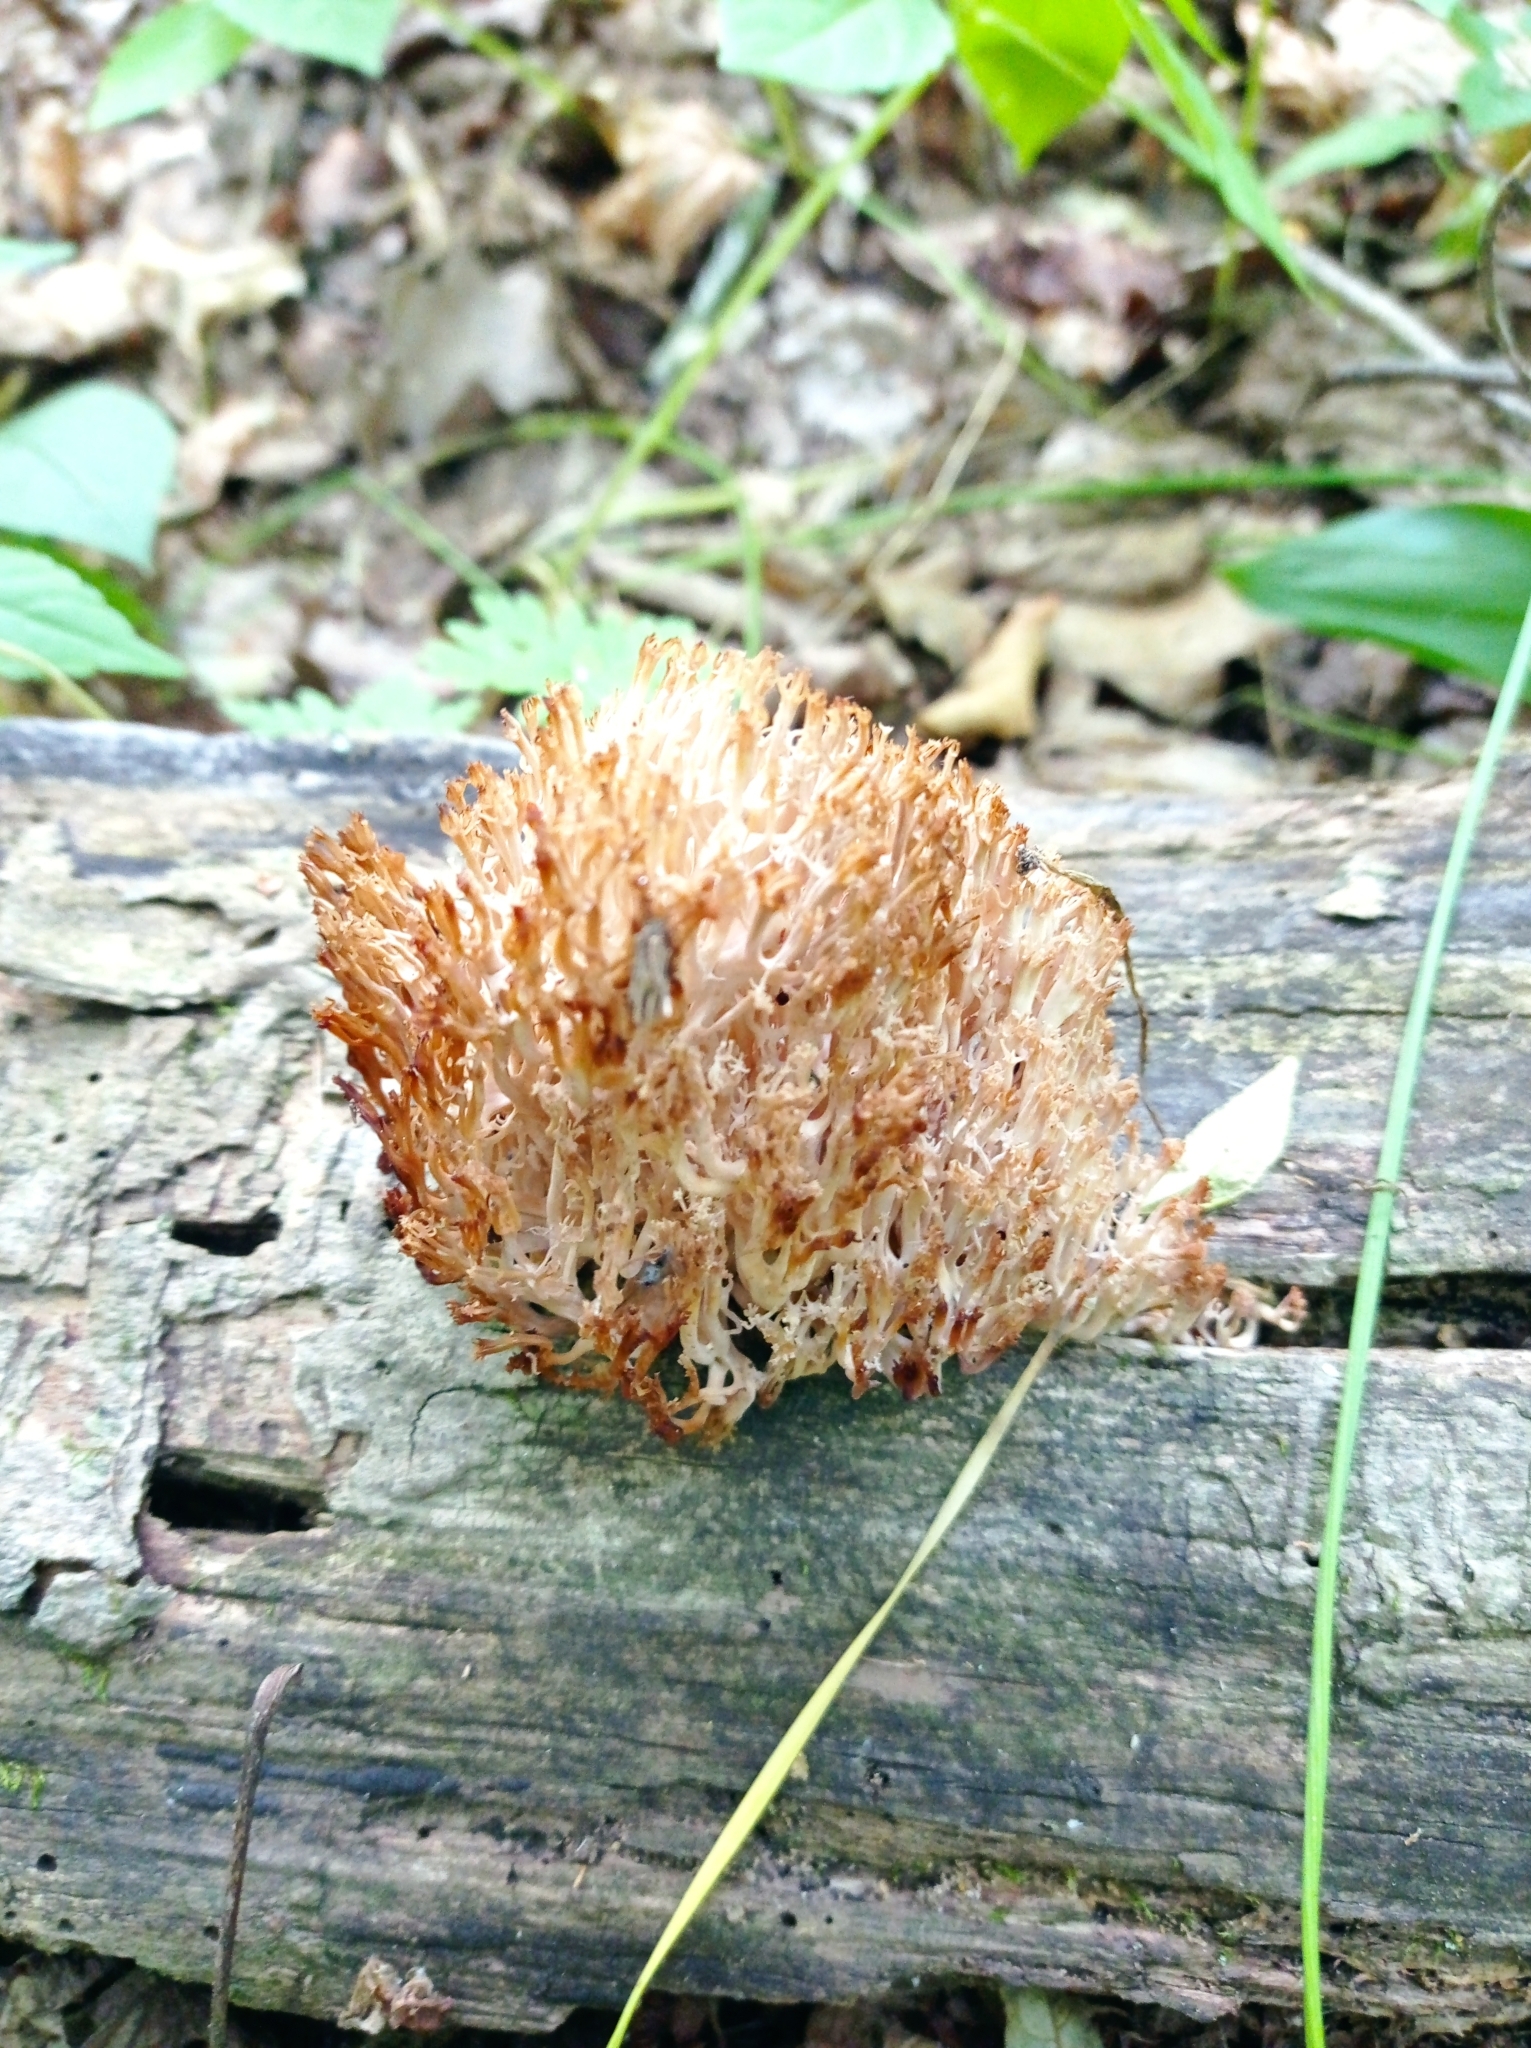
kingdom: Fungi
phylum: Basidiomycota
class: Agaricomycetes
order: Russulales
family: Auriscalpiaceae
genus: Artomyces
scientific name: Artomyces pyxidatus
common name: Crown-tipped coral fungus
